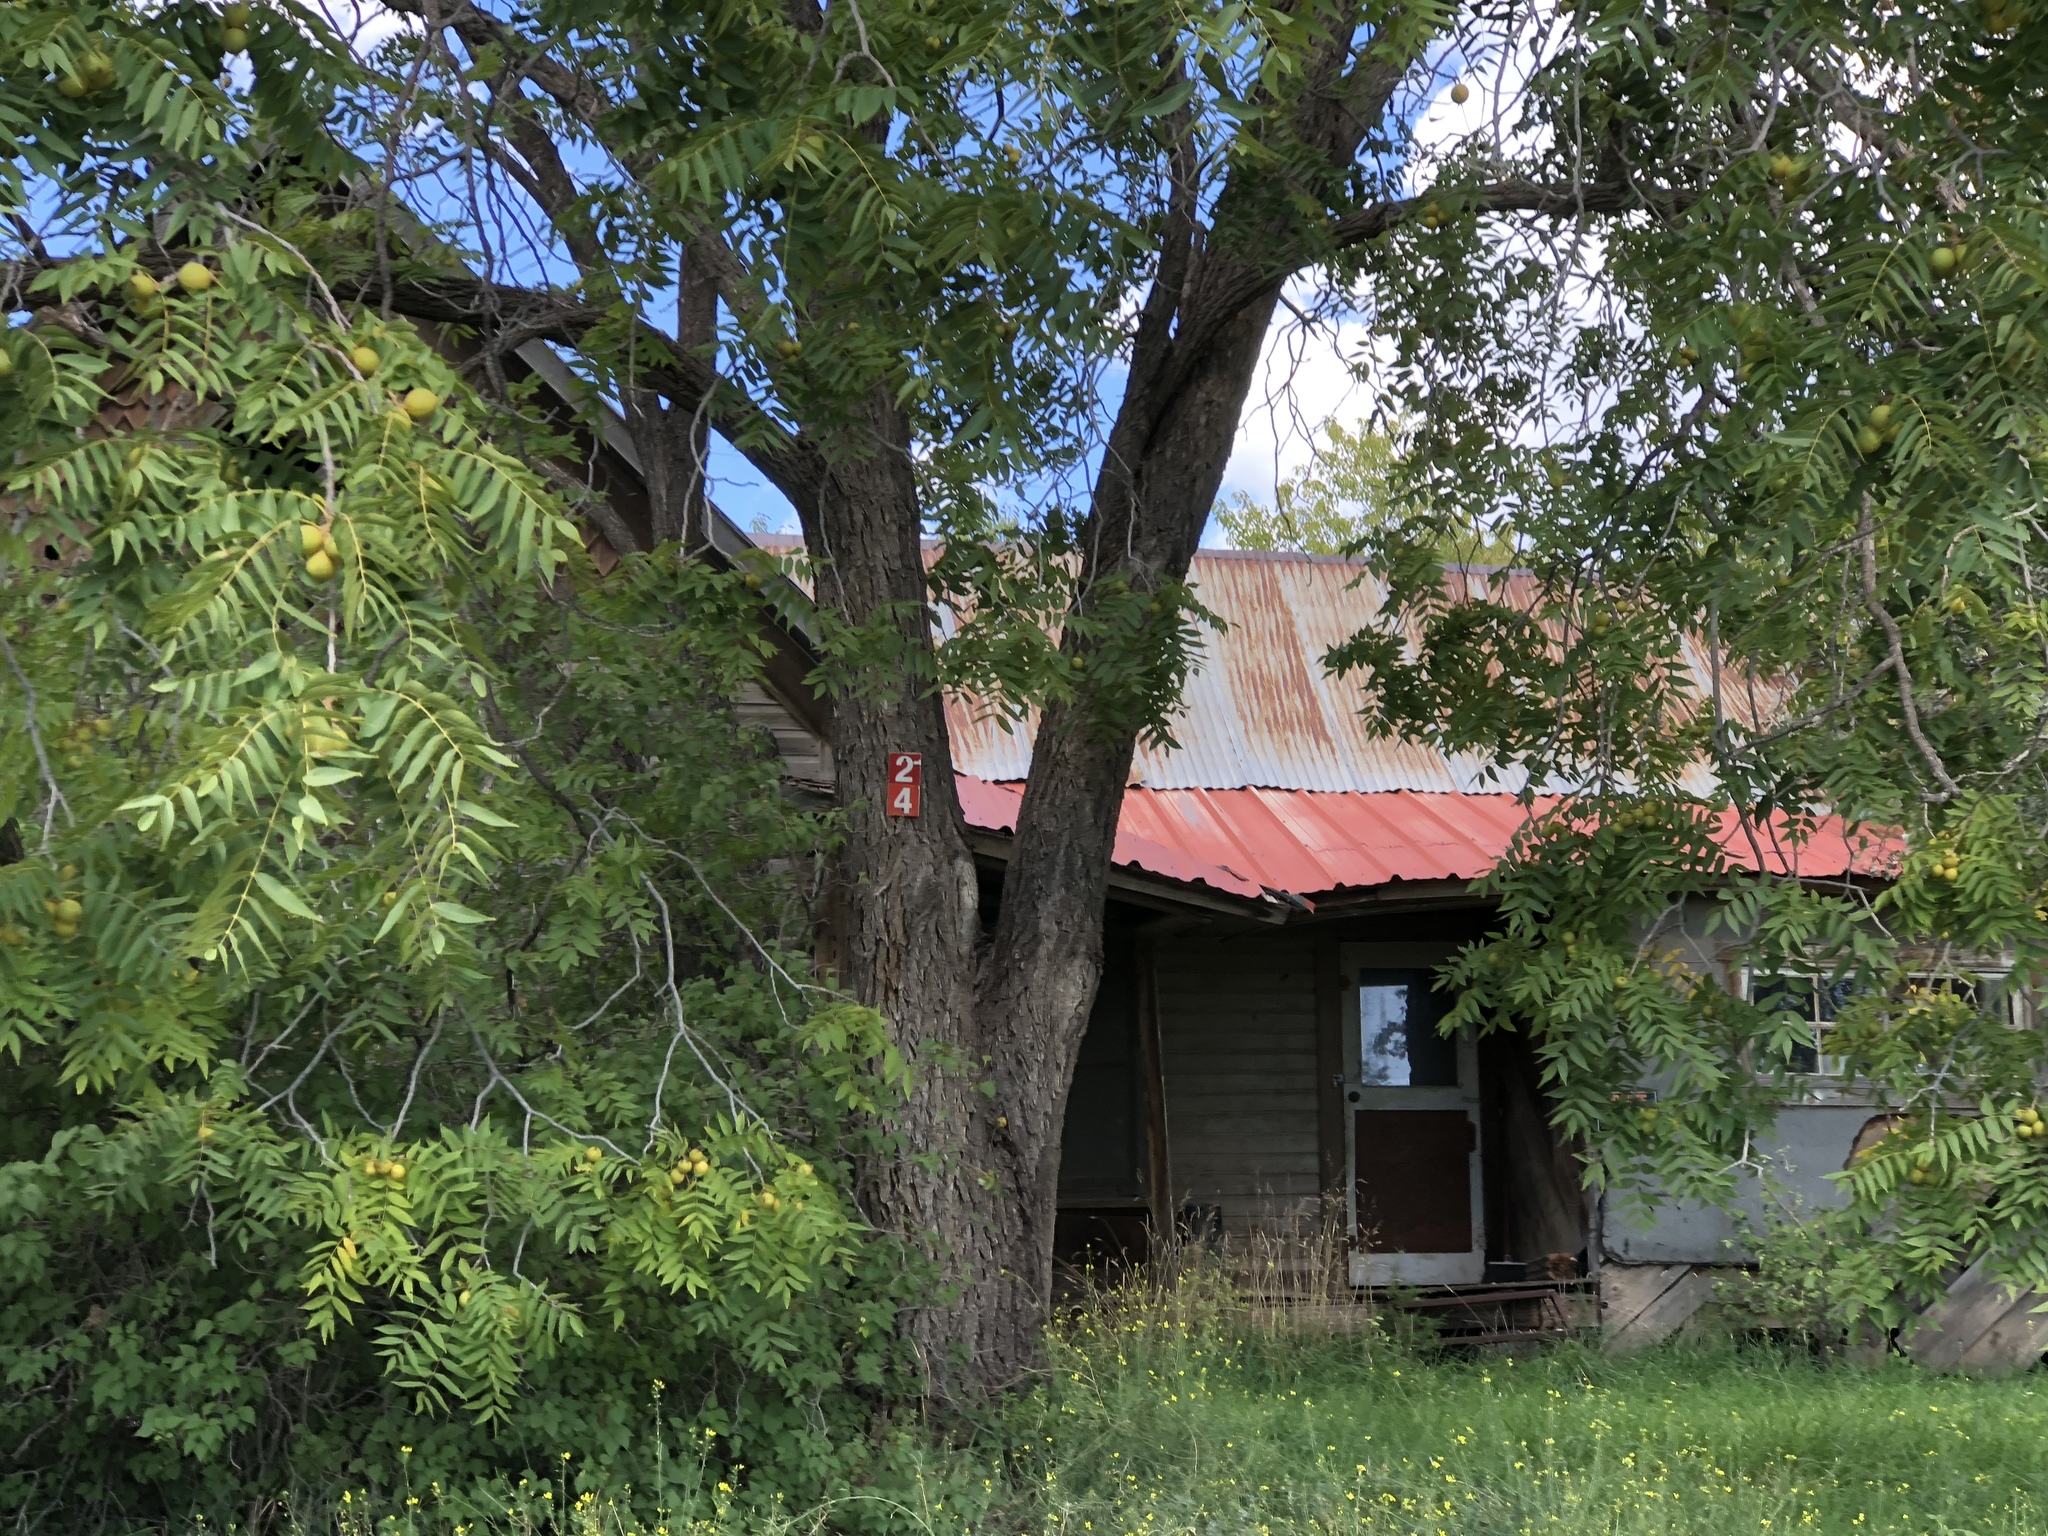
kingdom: Plantae
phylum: Tracheophyta
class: Magnoliopsida
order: Fagales
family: Juglandaceae
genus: Juglans
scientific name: Juglans nigra
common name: Black walnut
